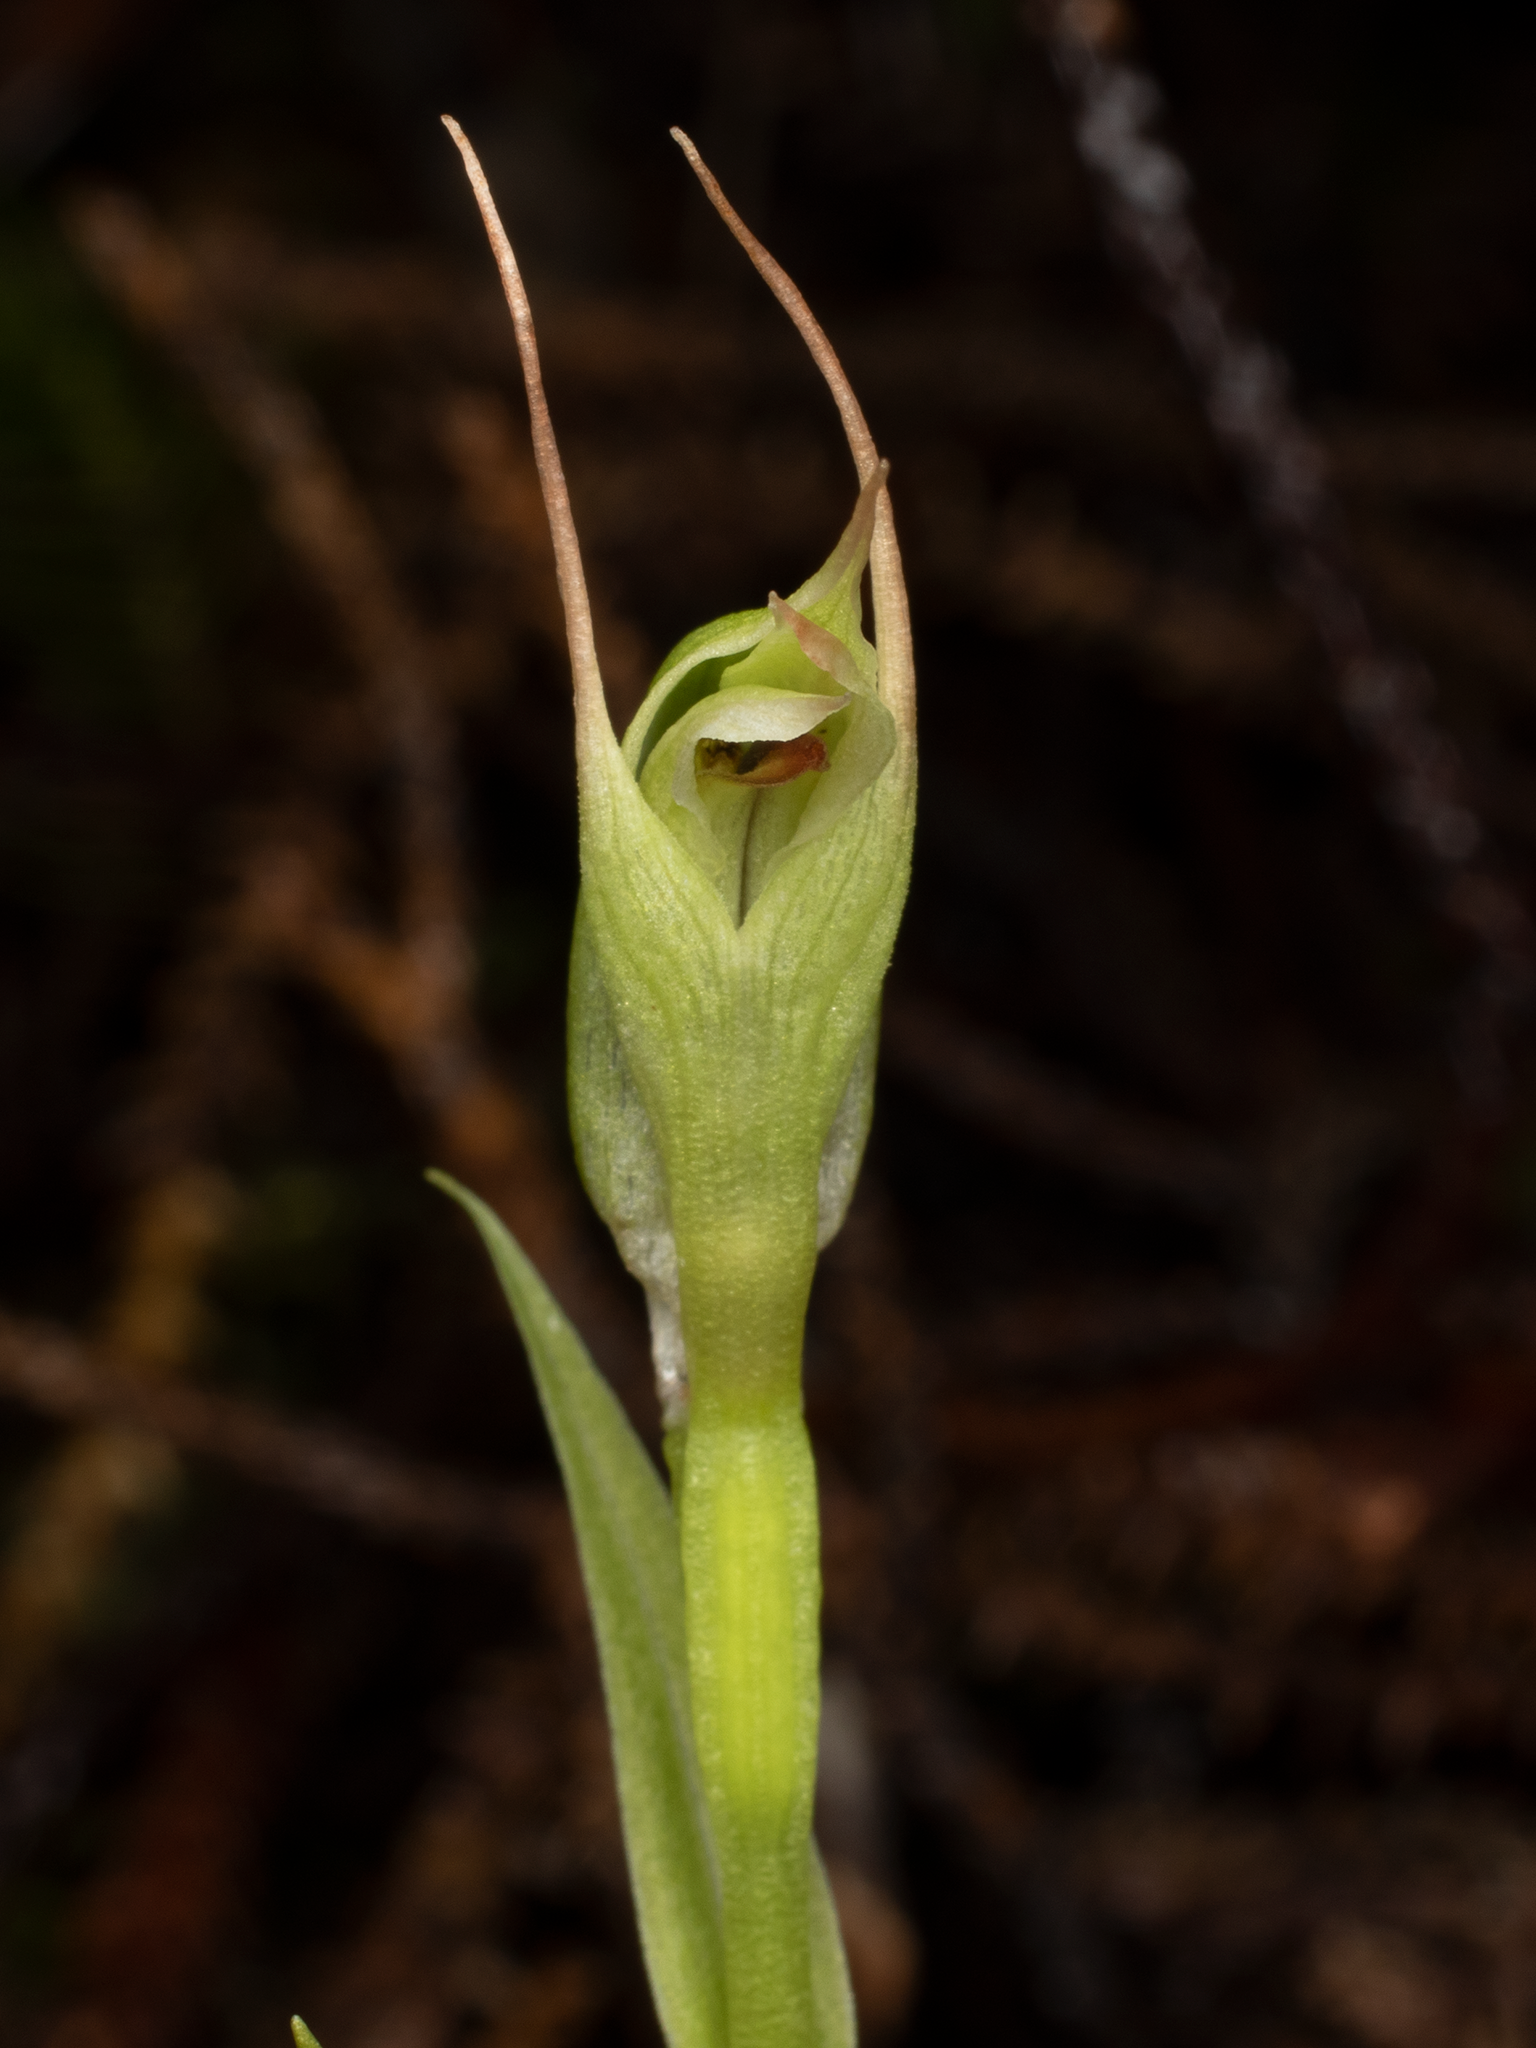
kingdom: Plantae
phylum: Tracheophyta
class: Liliopsida
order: Asparagales
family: Orchidaceae
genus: Pterostylis
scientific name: Pterostylis montana
